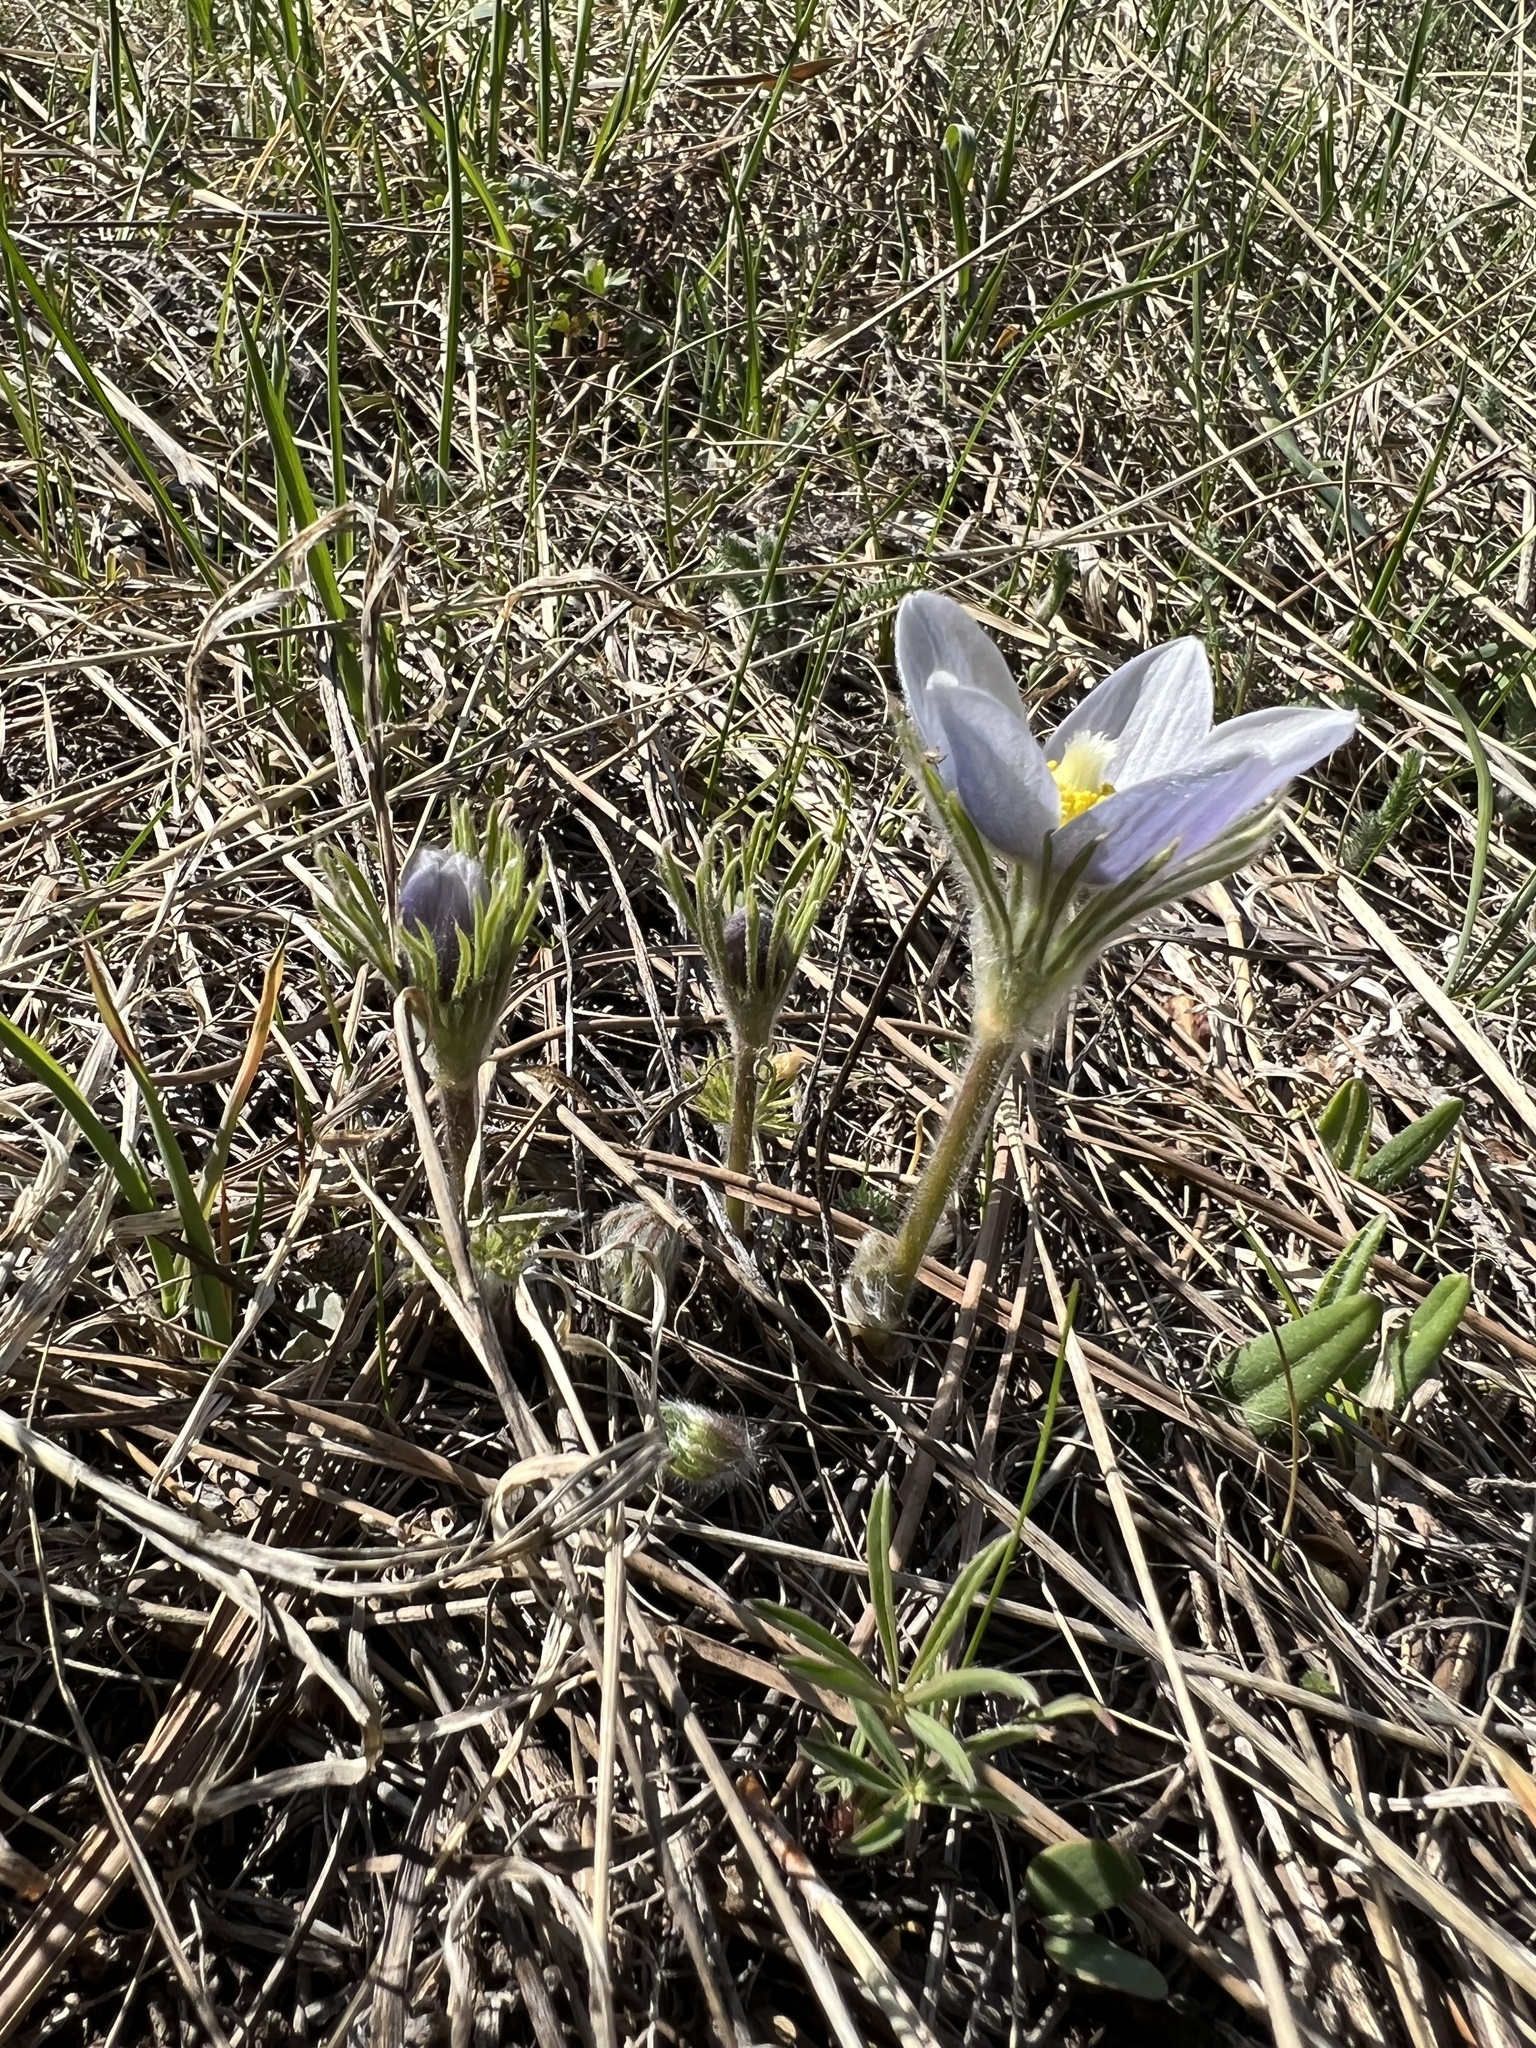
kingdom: Plantae
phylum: Tracheophyta
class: Magnoliopsida
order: Ranunculales
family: Ranunculaceae
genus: Pulsatilla
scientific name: Pulsatilla nuttalliana
